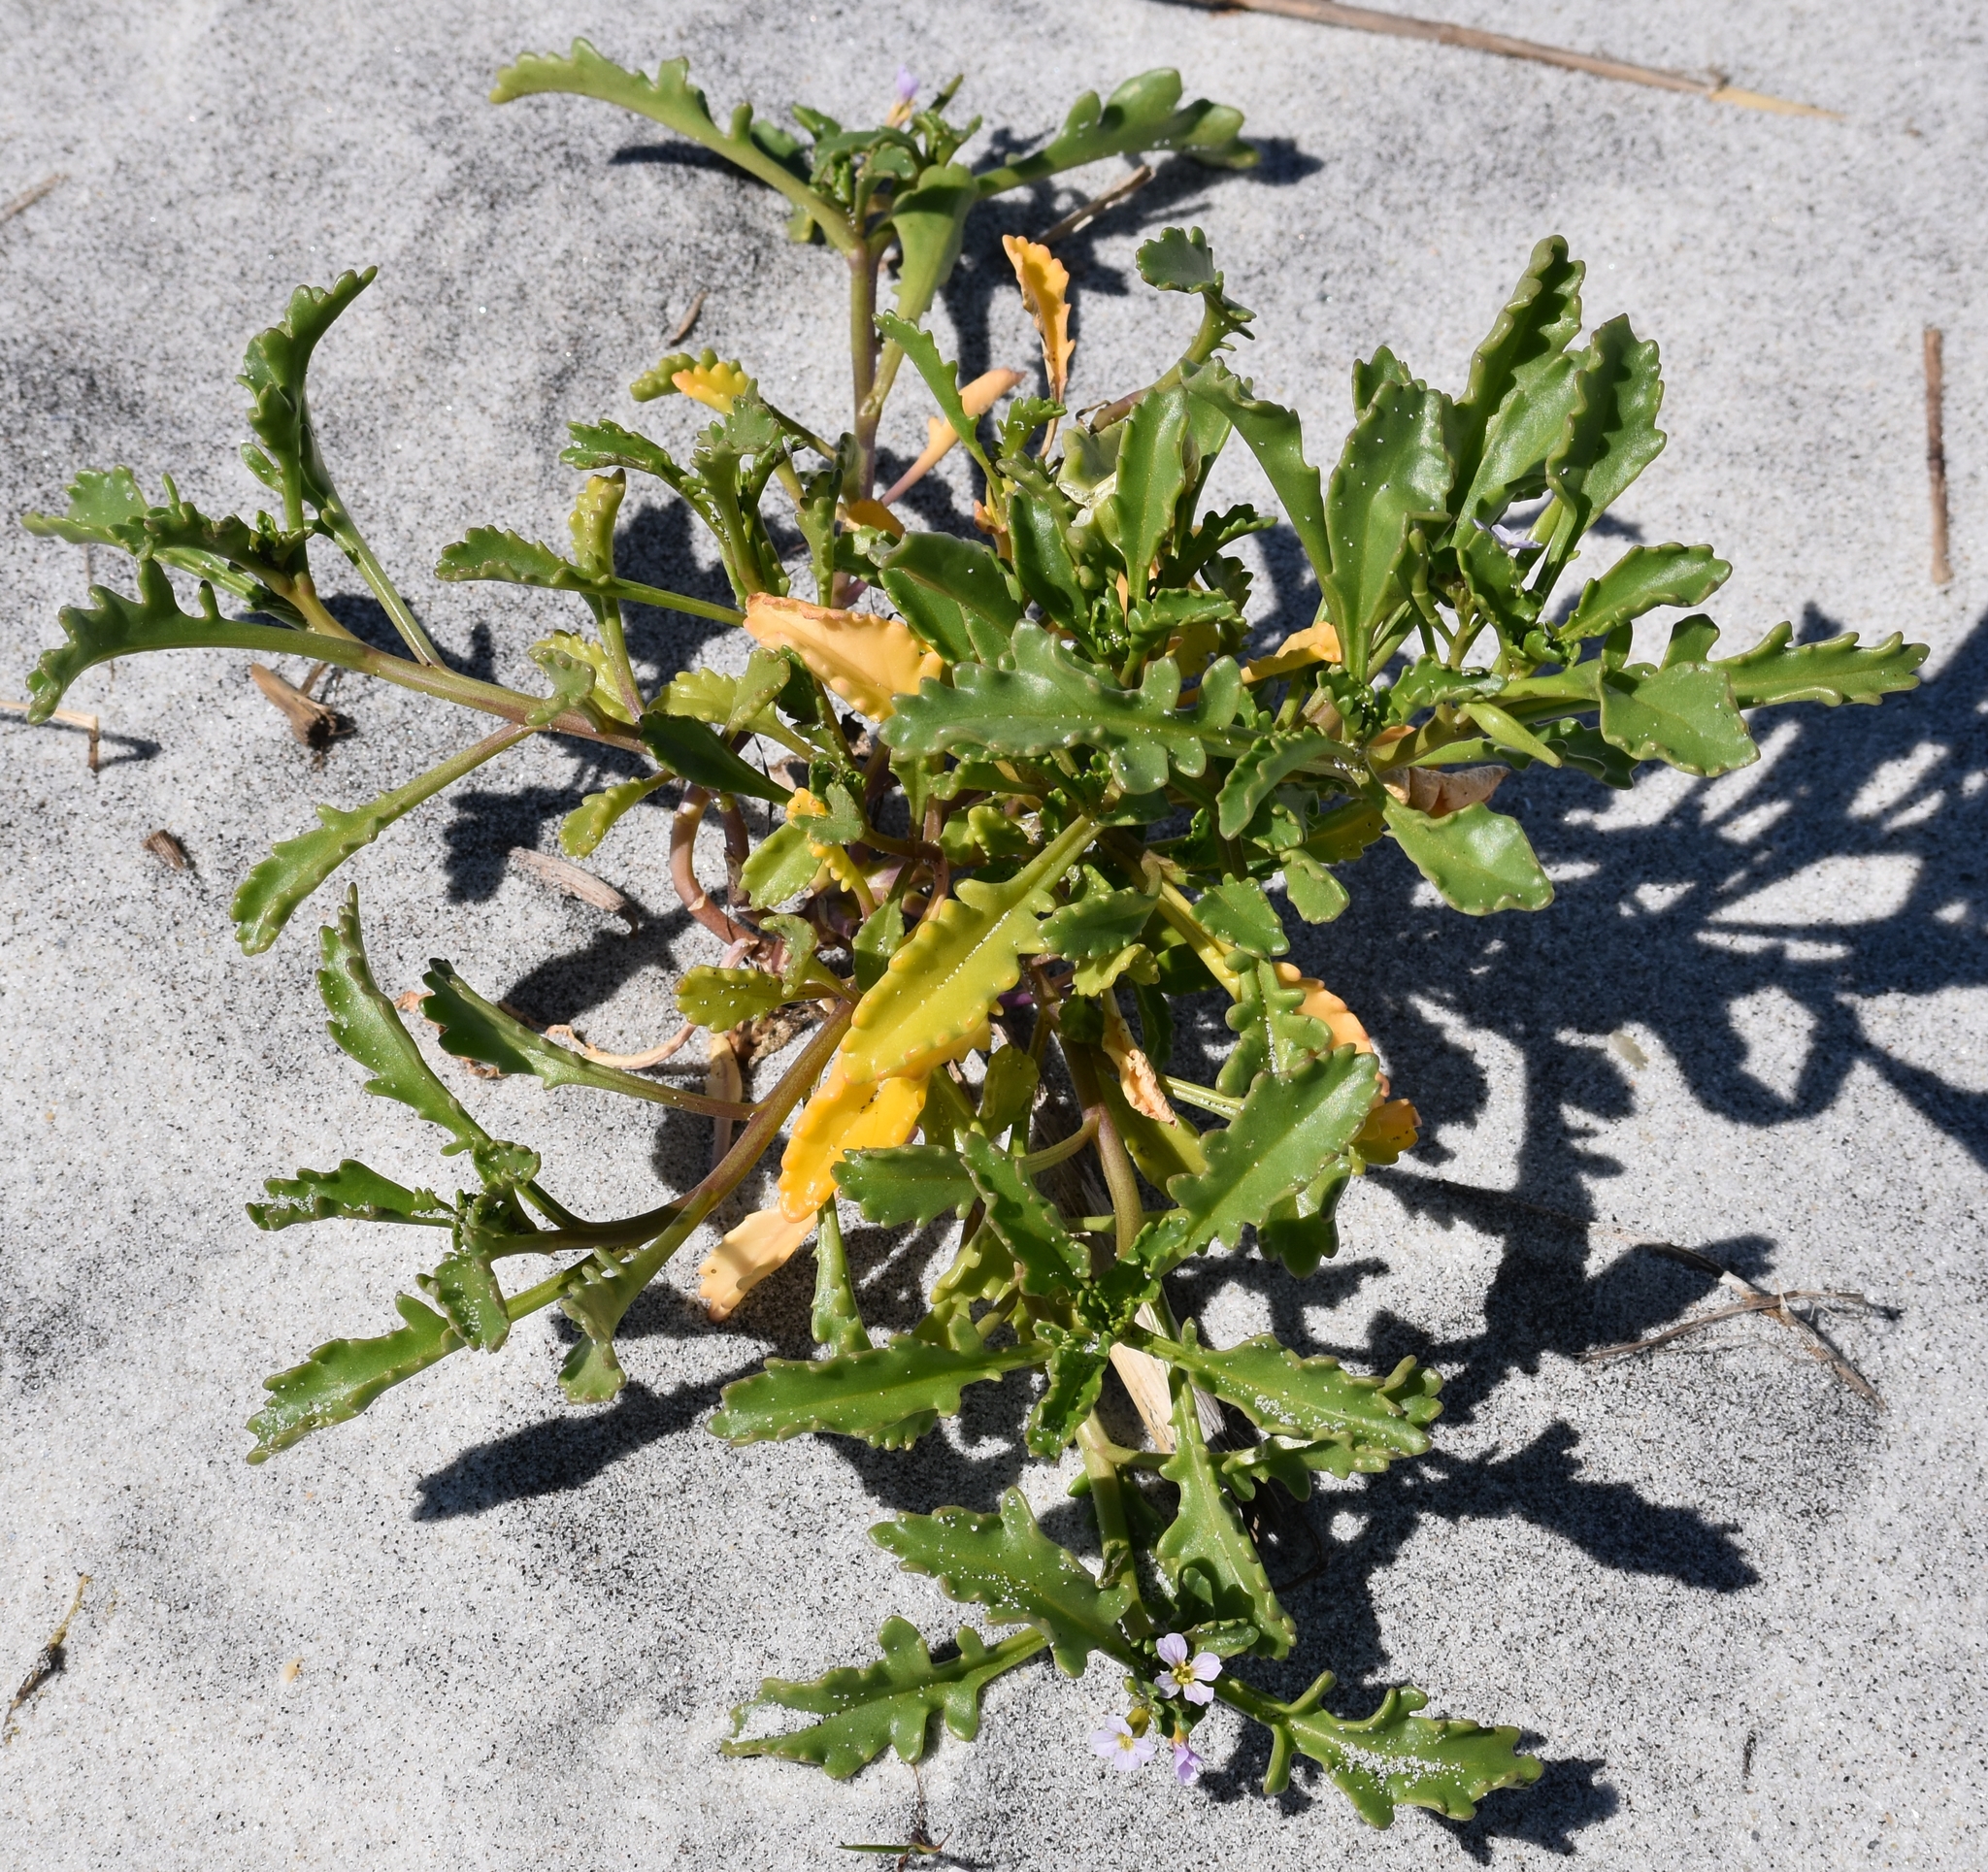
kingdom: Plantae
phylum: Tracheophyta
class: Magnoliopsida
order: Brassicales
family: Brassicaceae
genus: Cakile
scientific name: Cakile constricta
